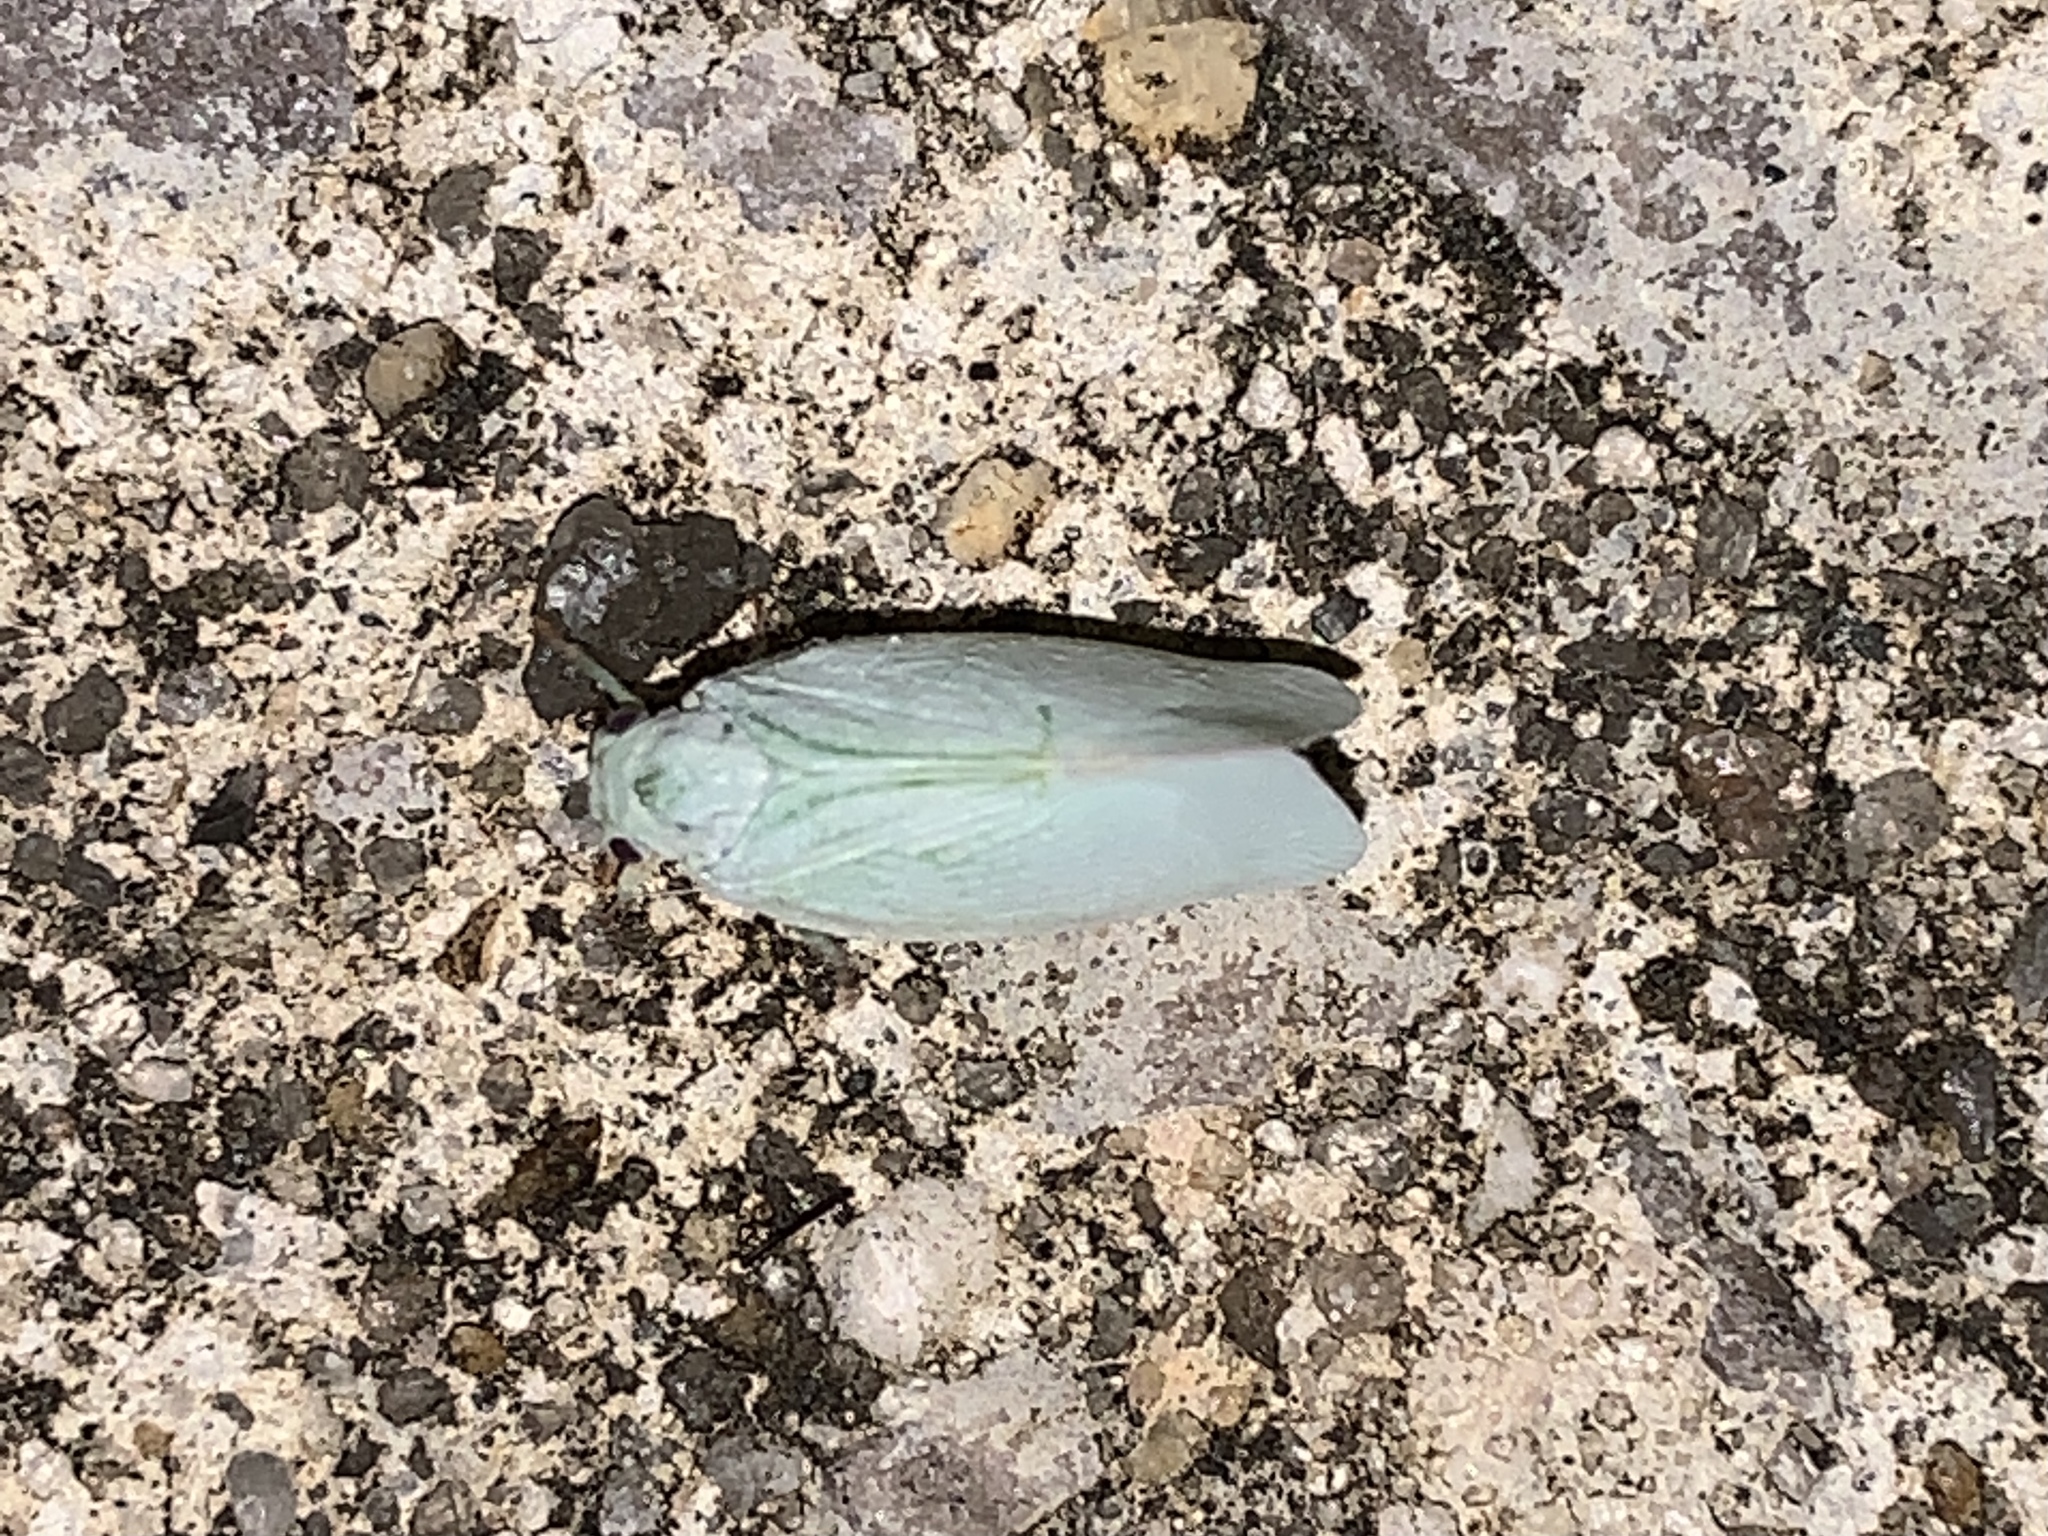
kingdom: Animalia
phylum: Arthropoda
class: Insecta
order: Hemiptera
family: Flatidae
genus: Flatormenis
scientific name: Flatormenis proxima
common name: Northern flatid planthopper
